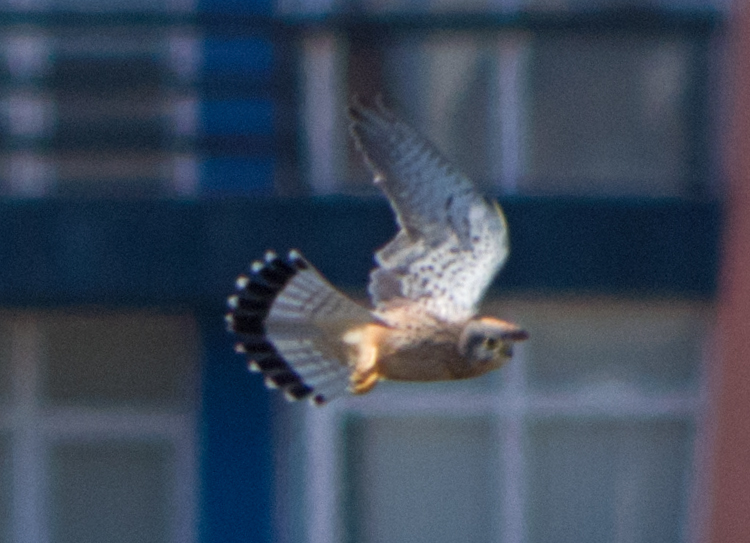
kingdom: Animalia
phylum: Chordata
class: Aves
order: Falconiformes
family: Falconidae
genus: Falco
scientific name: Falco tinnunculus
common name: Common kestrel
